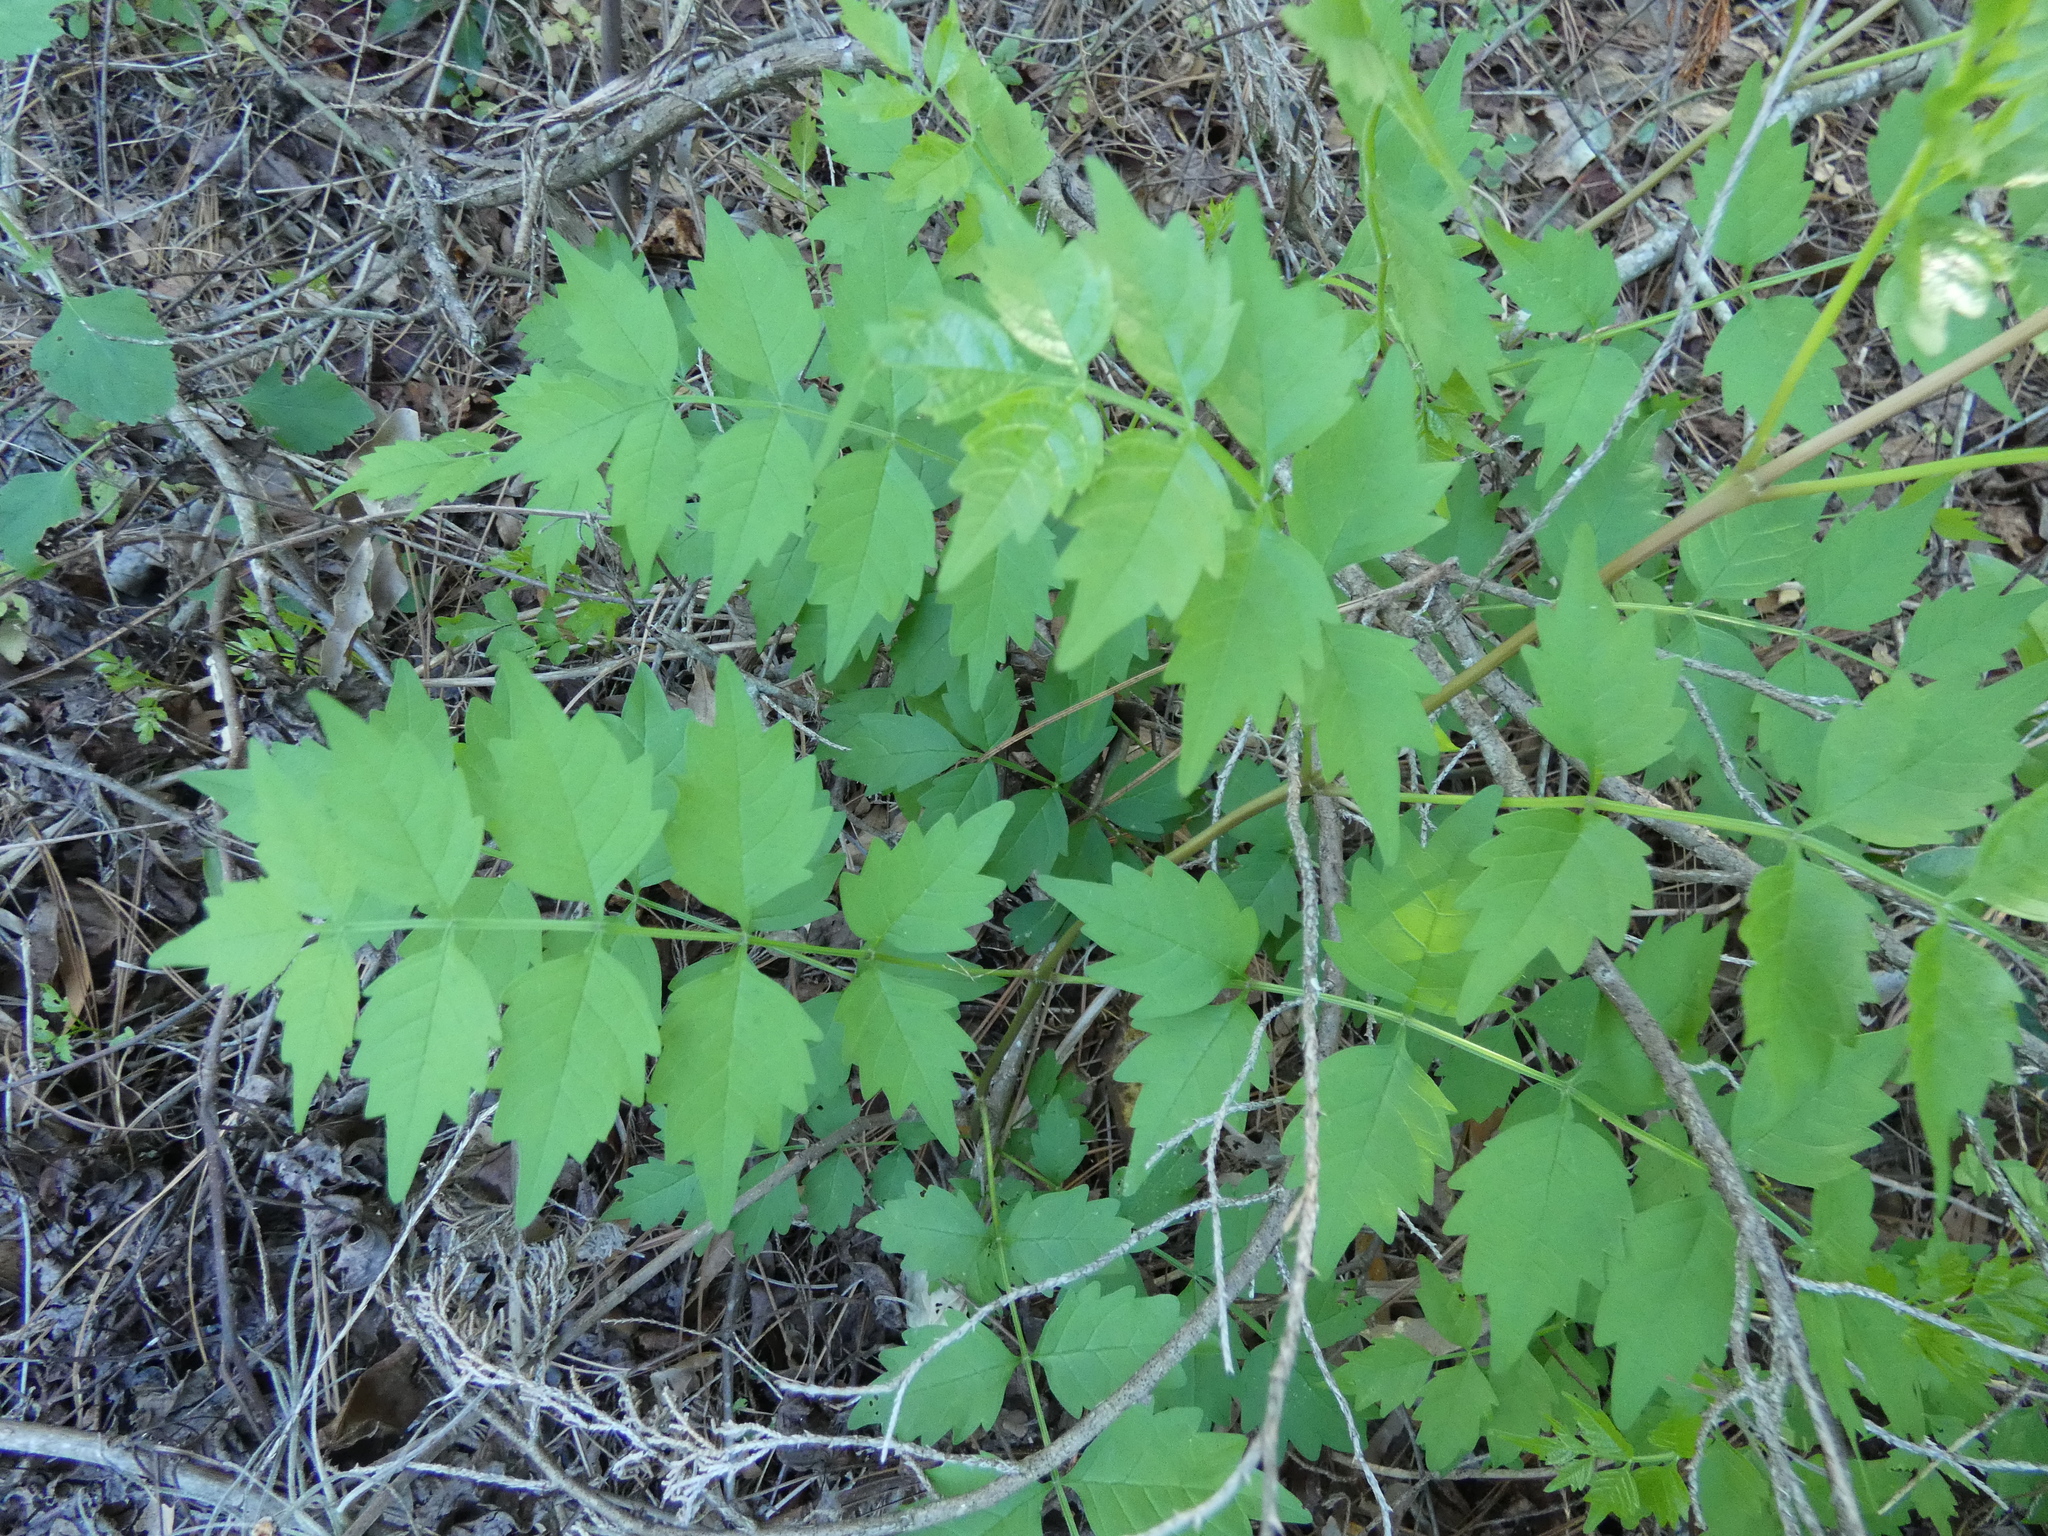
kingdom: Plantae
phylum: Tracheophyta
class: Magnoliopsida
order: Lamiales
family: Bignoniaceae
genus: Campsis
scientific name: Campsis radicans
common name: Trumpet-creeper
